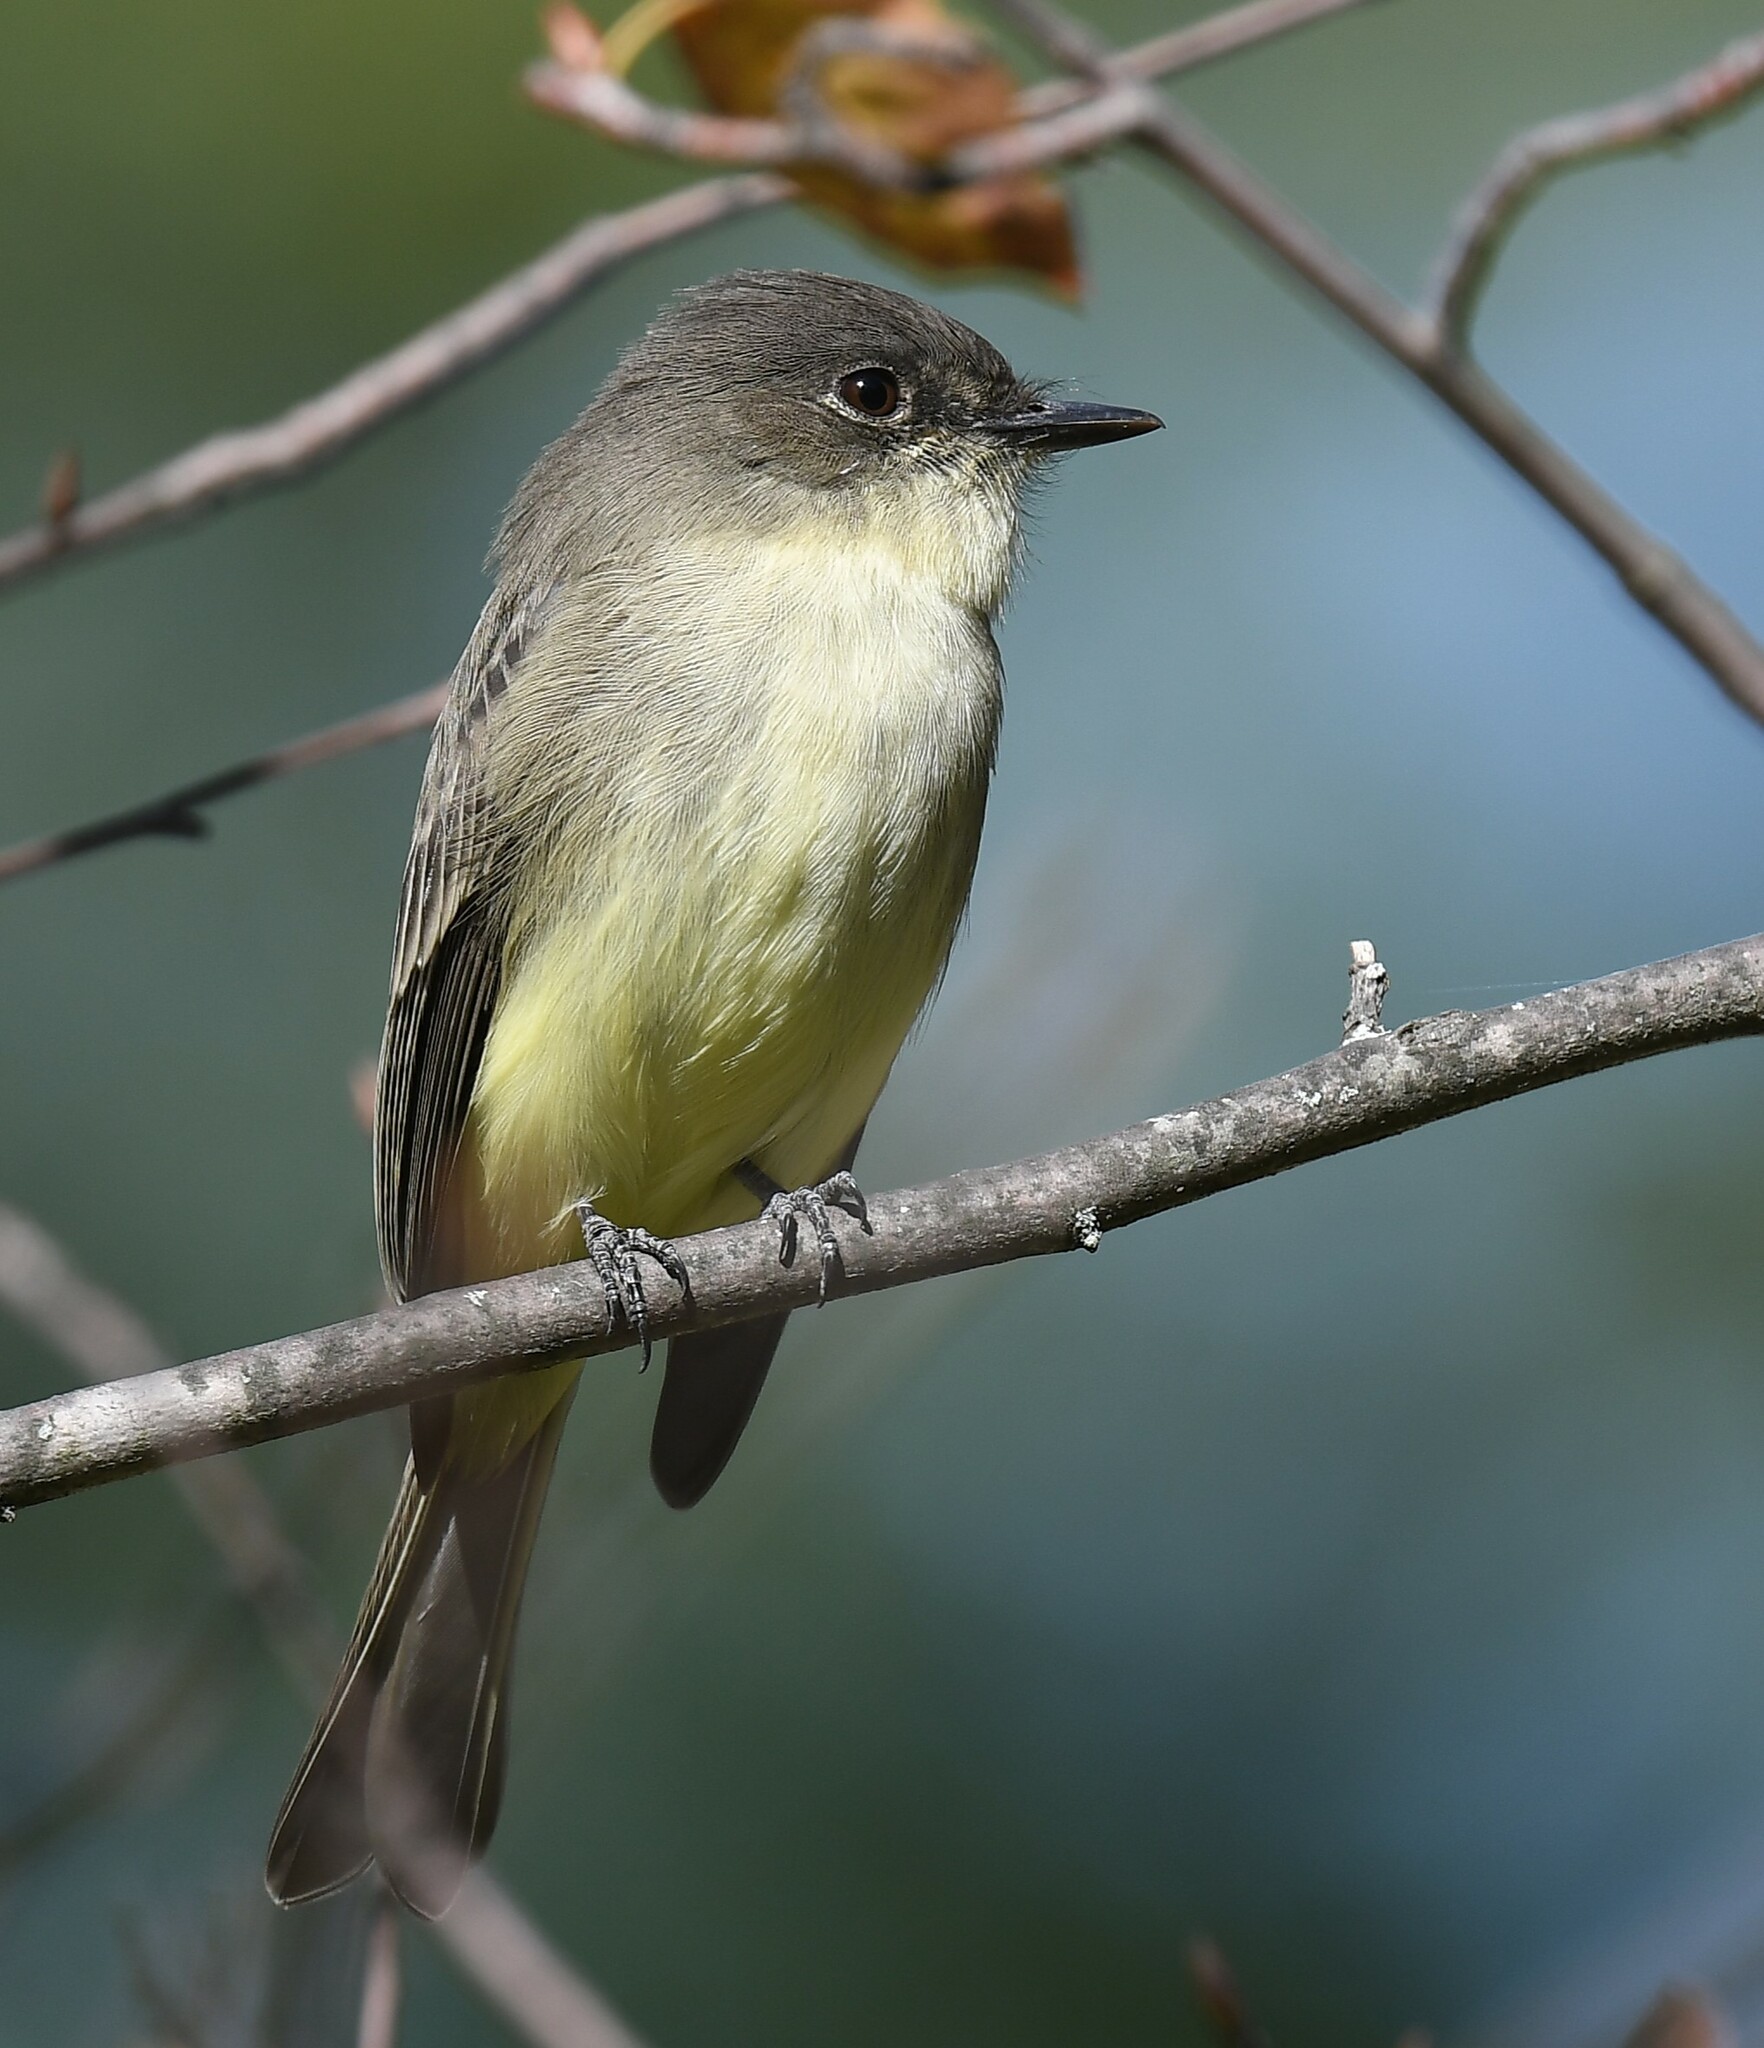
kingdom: Animalia
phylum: Chordata
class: Aves
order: Passeriformes
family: Tyrannidae
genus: Sayornis
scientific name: Sayornis phoebe
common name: Eastern phoebe
